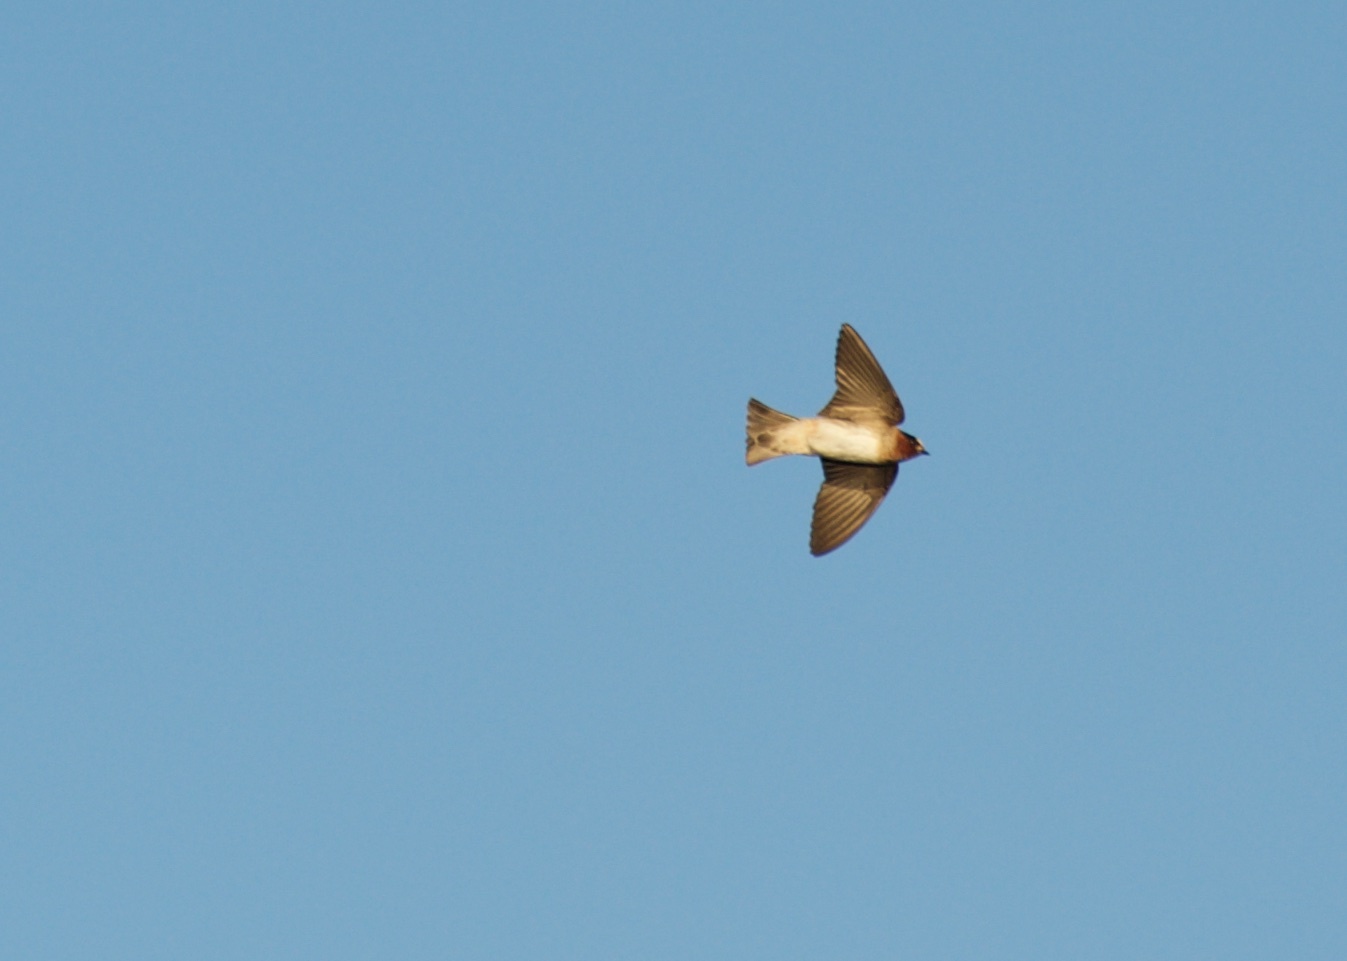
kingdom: Animalia
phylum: Chordata
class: Aves
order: Passeriformes
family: Hirundinidae
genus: Petrochelidon
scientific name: Petrochelidon pyrrhonota
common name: American cliff swallow
